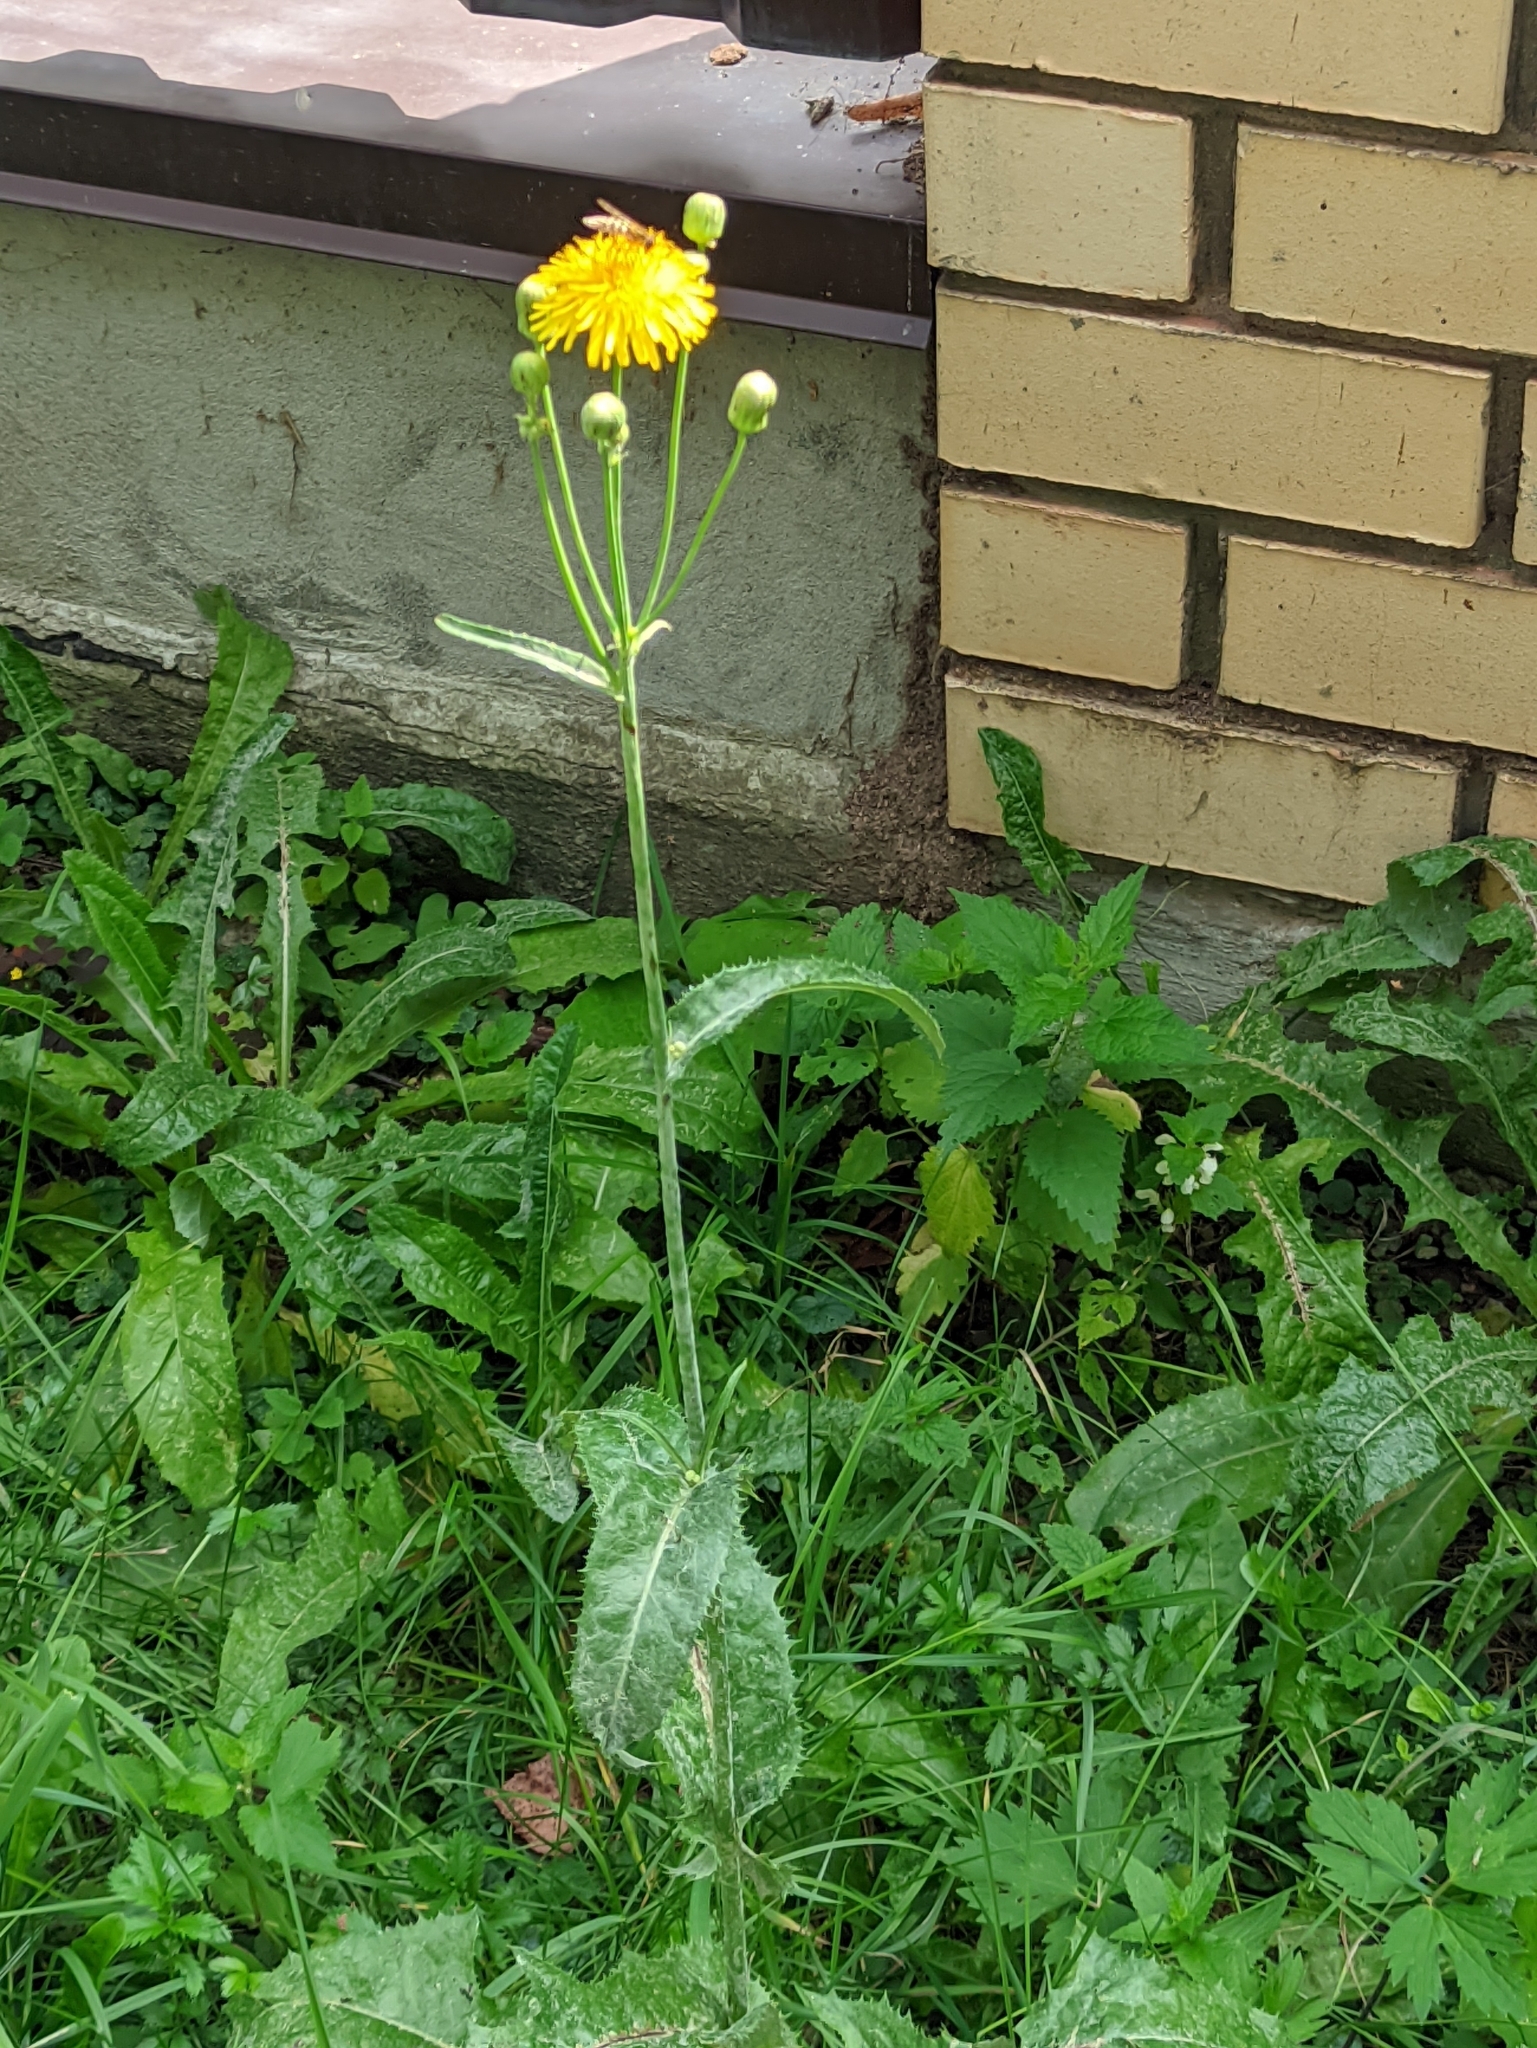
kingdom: Plantae
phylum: Tracheophyta
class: Magnoliopsida
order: Asterales
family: Asteraceae
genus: Sonchus
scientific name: Sonchus arvensis
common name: Perennial sow-thistle
